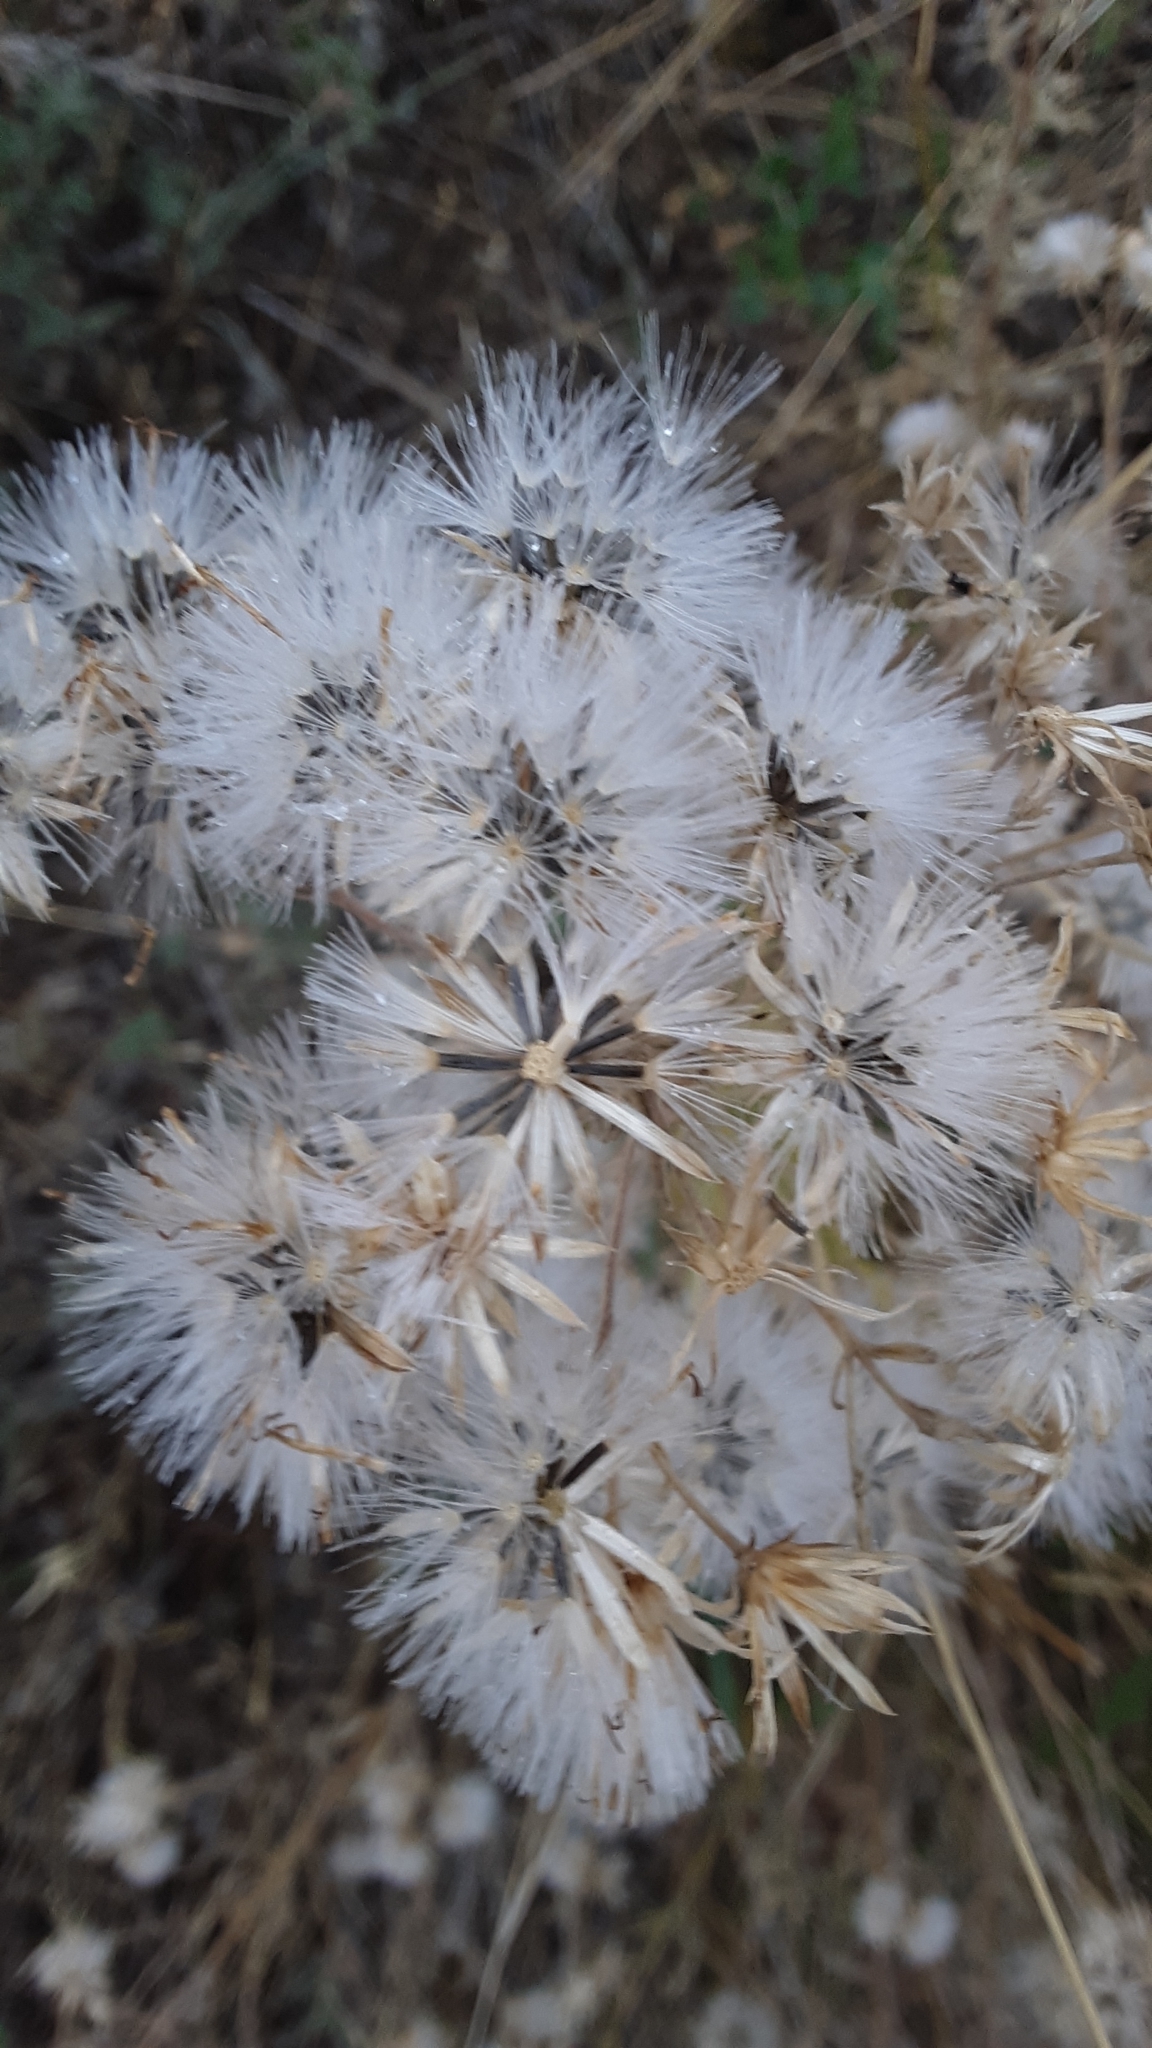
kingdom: Plantae
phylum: Tracheophyta
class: Magnoliopsida
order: Asterales
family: Asteraceae
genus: Brickellia
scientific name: Brickellia eupatorioides
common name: False boneset
